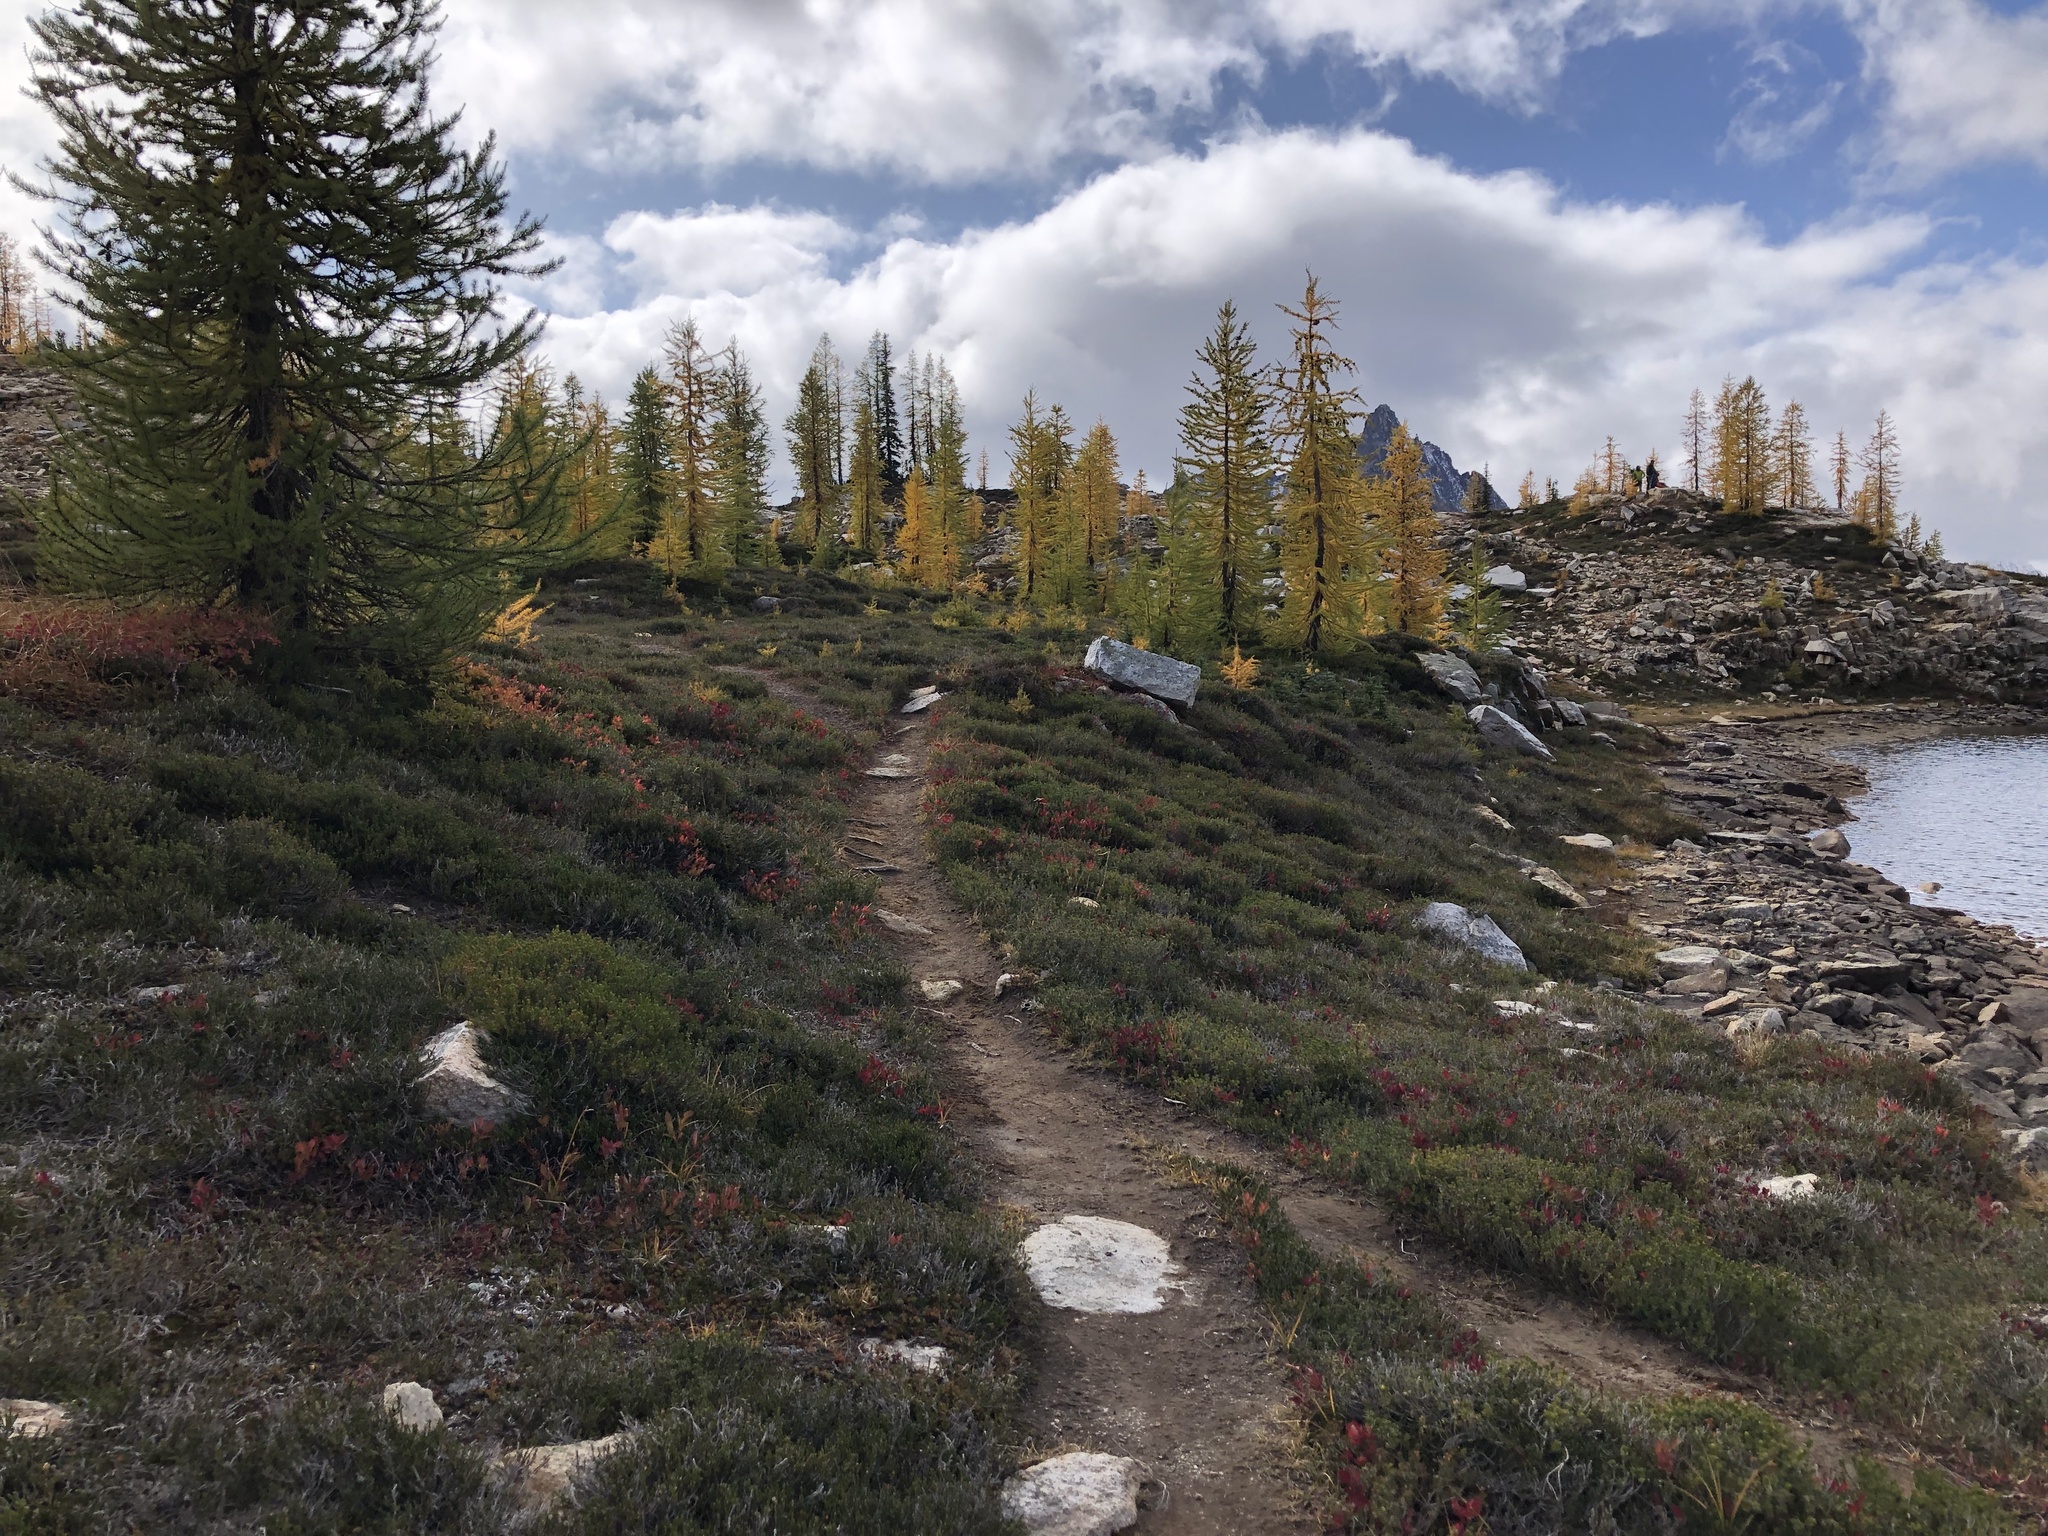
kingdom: Plantae
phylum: Tracheophyta
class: Pinopsida
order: Pinales
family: Pinaceae
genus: Larix
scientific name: Larix lyallii
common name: Alpine larch
